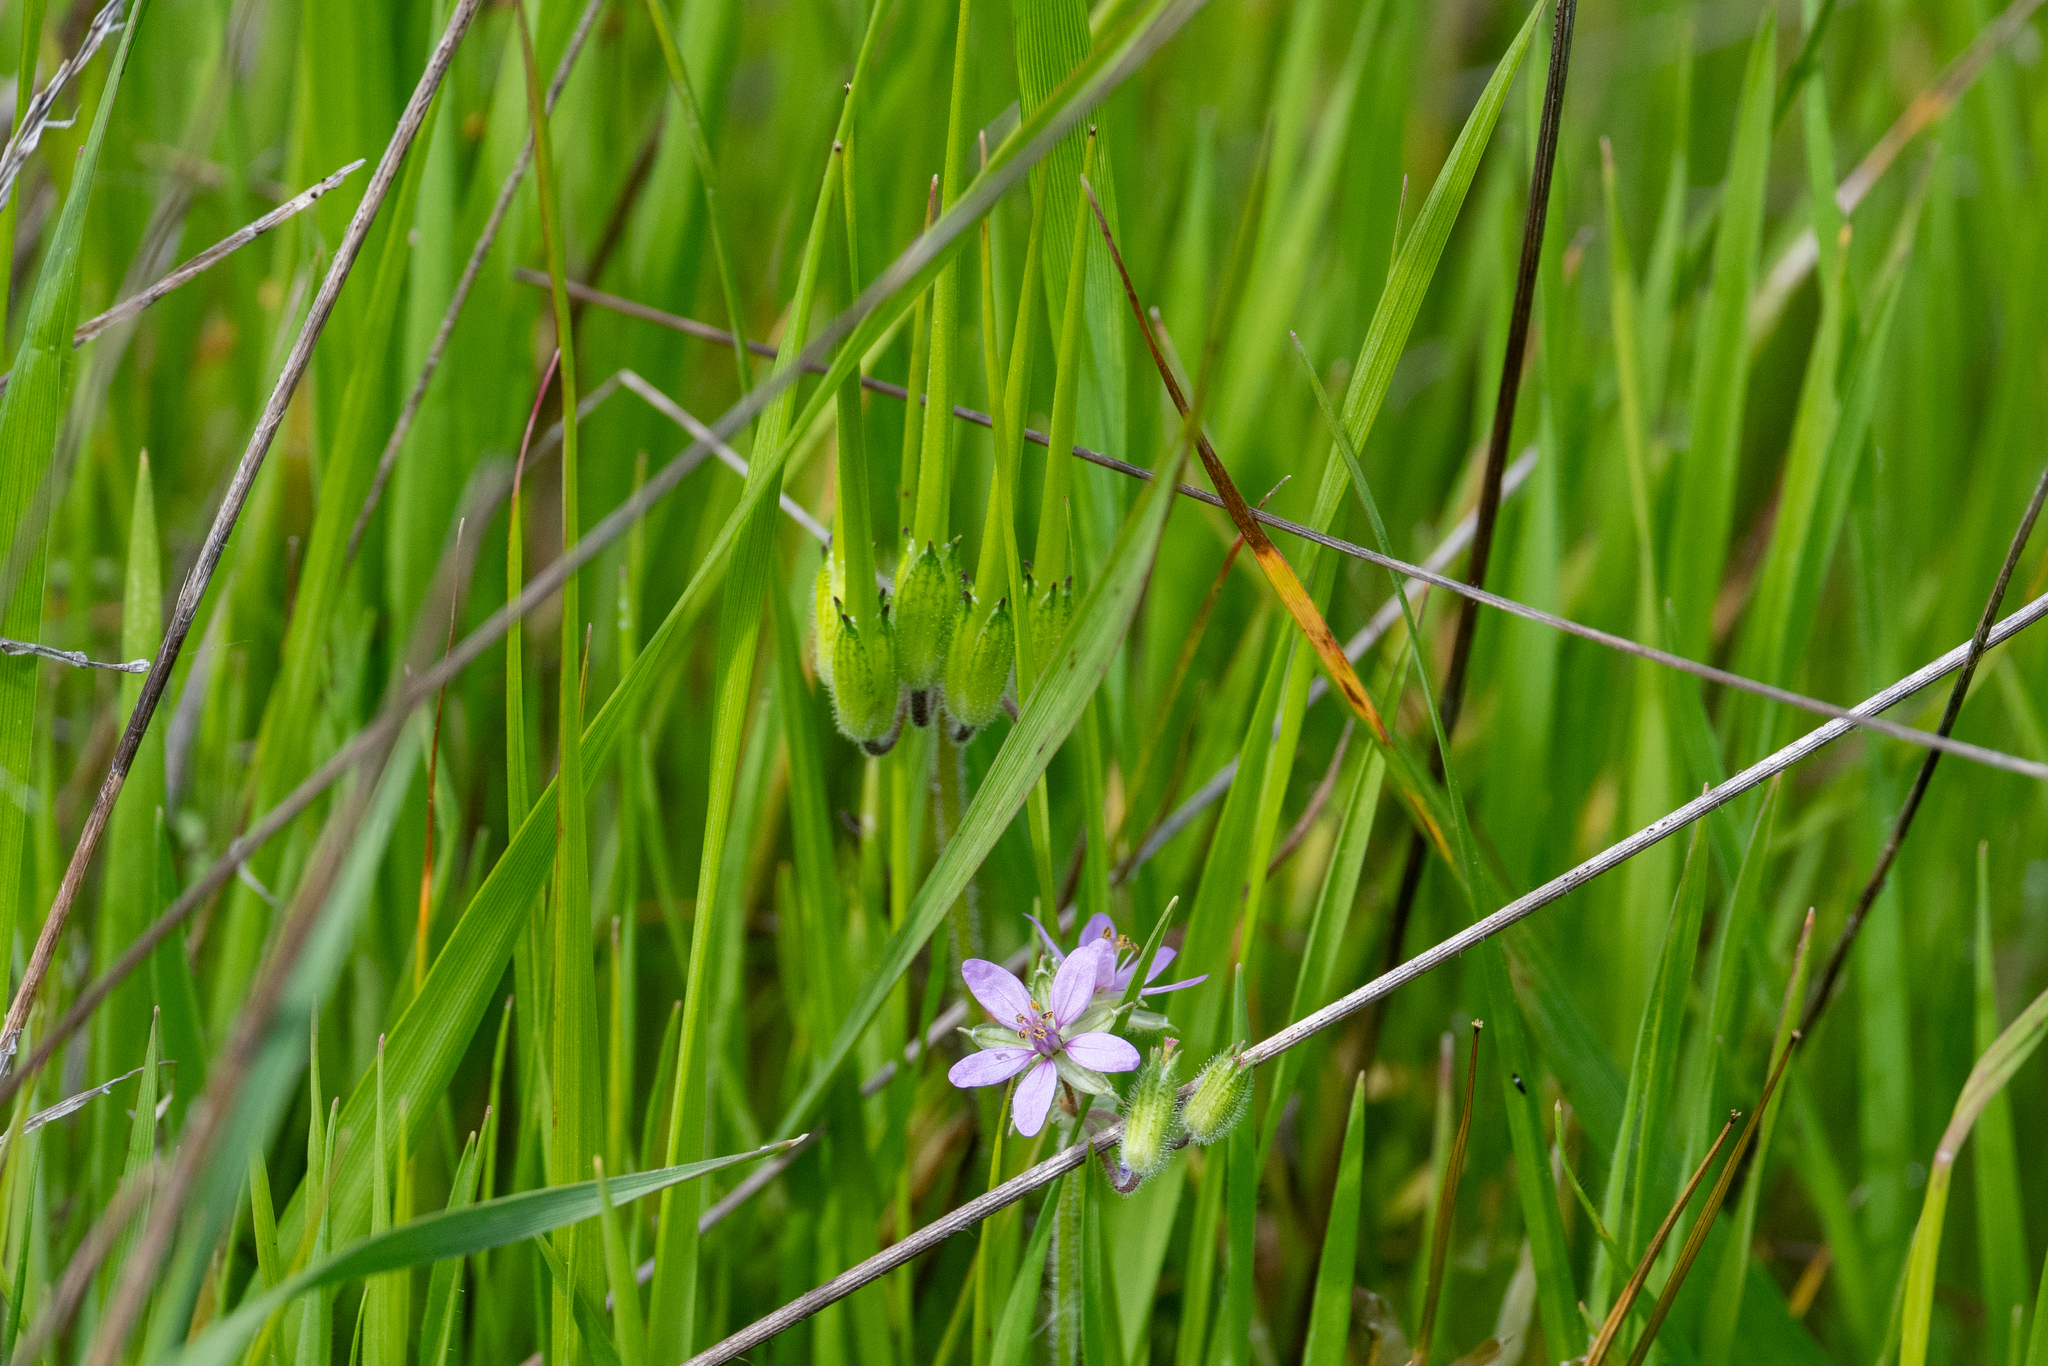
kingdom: Plantae
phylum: Tracheophyta
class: Magnoliopsida
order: Geraniales
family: Geraniaceae
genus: Erodium
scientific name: Erodium moschatum
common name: Musk stork's-bill
